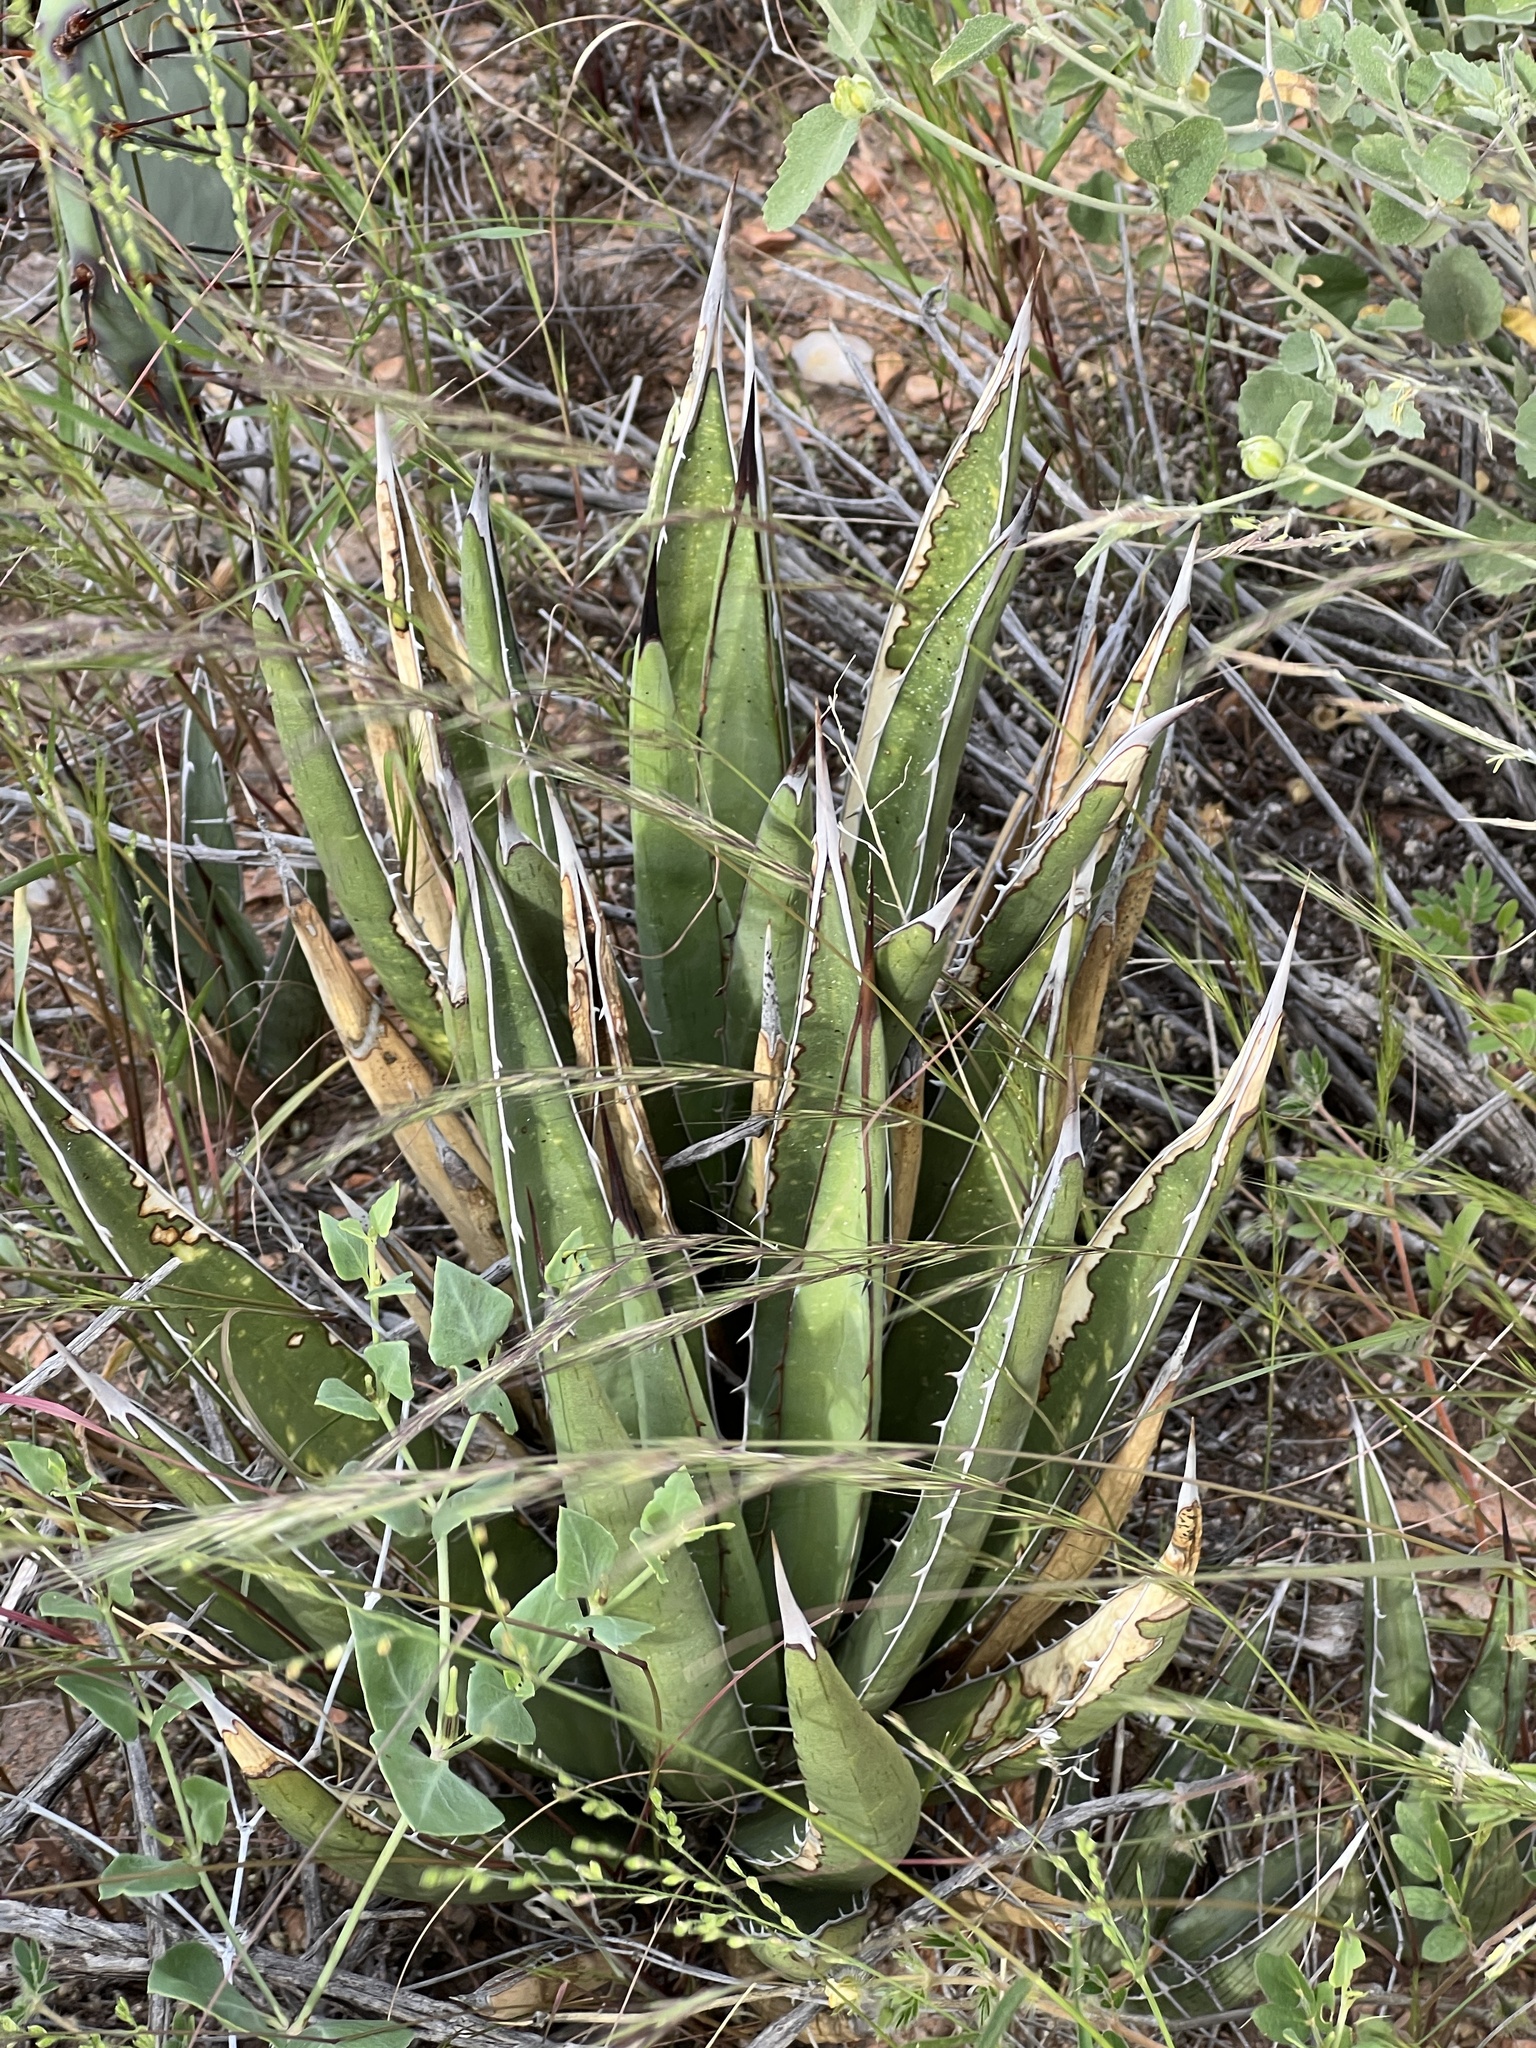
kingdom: Plantae
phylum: Tracheophyta
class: Liliopsida
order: Asparagales
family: Asparagaceae
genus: Agave
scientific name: Agave lechuguilla
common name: Lecheguilla agave
